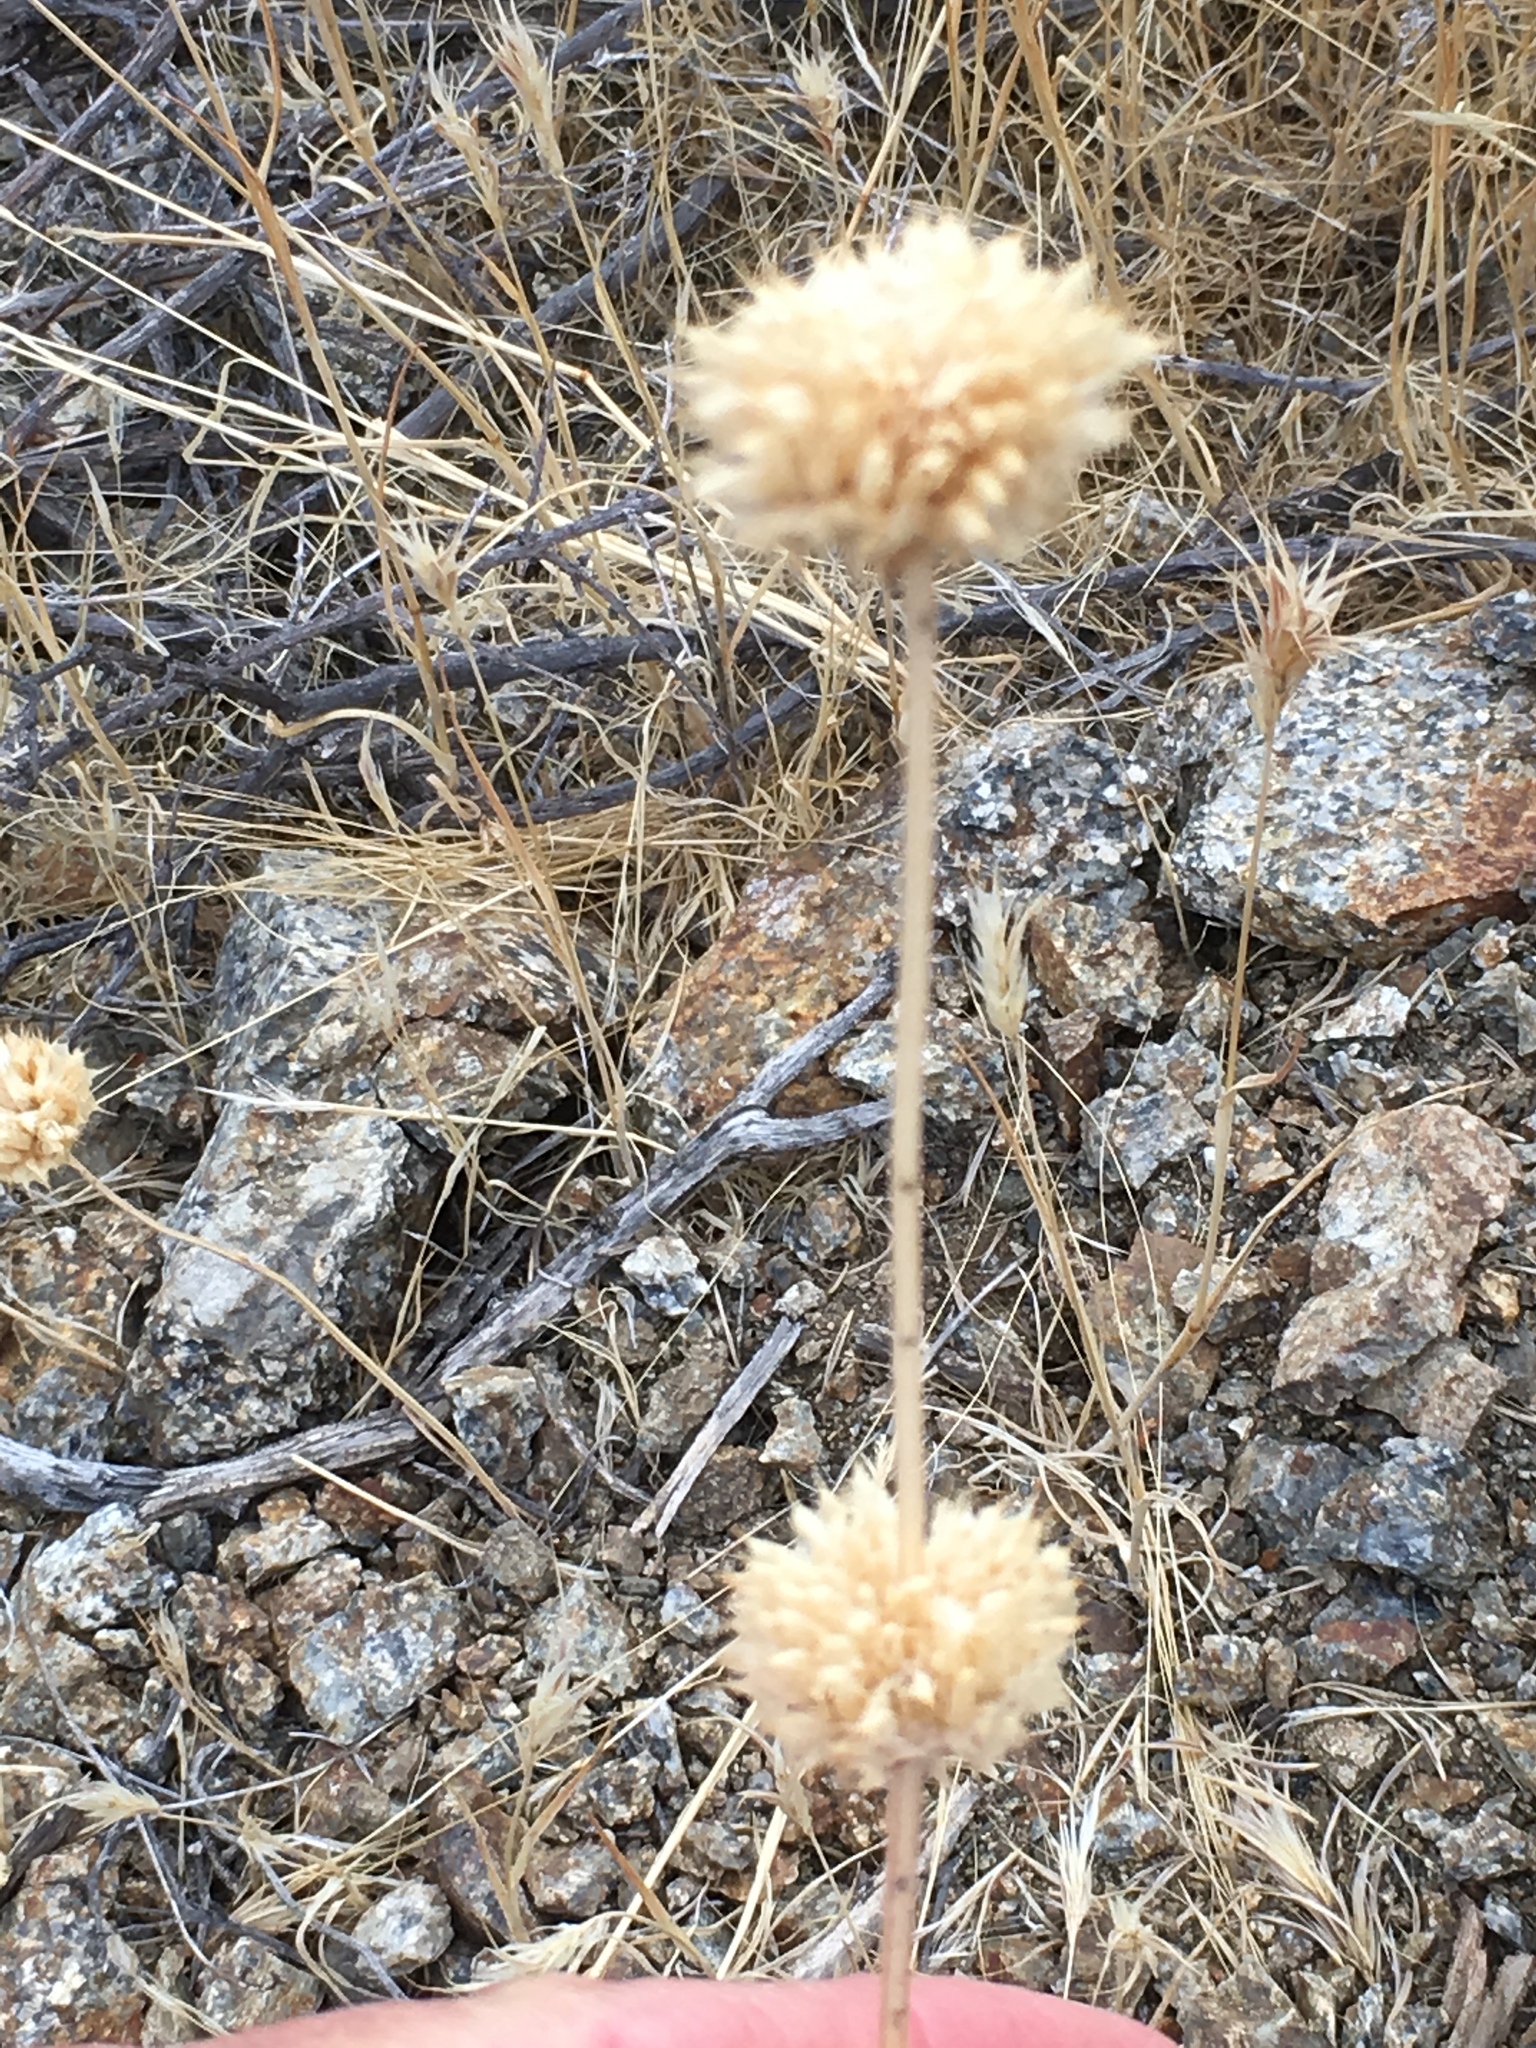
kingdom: Plantae
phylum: Tracheophyta
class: Magnoliopsida
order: Lamiales
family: Lamiaceae
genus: Salvia
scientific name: Salvia columbariae
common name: Chia
